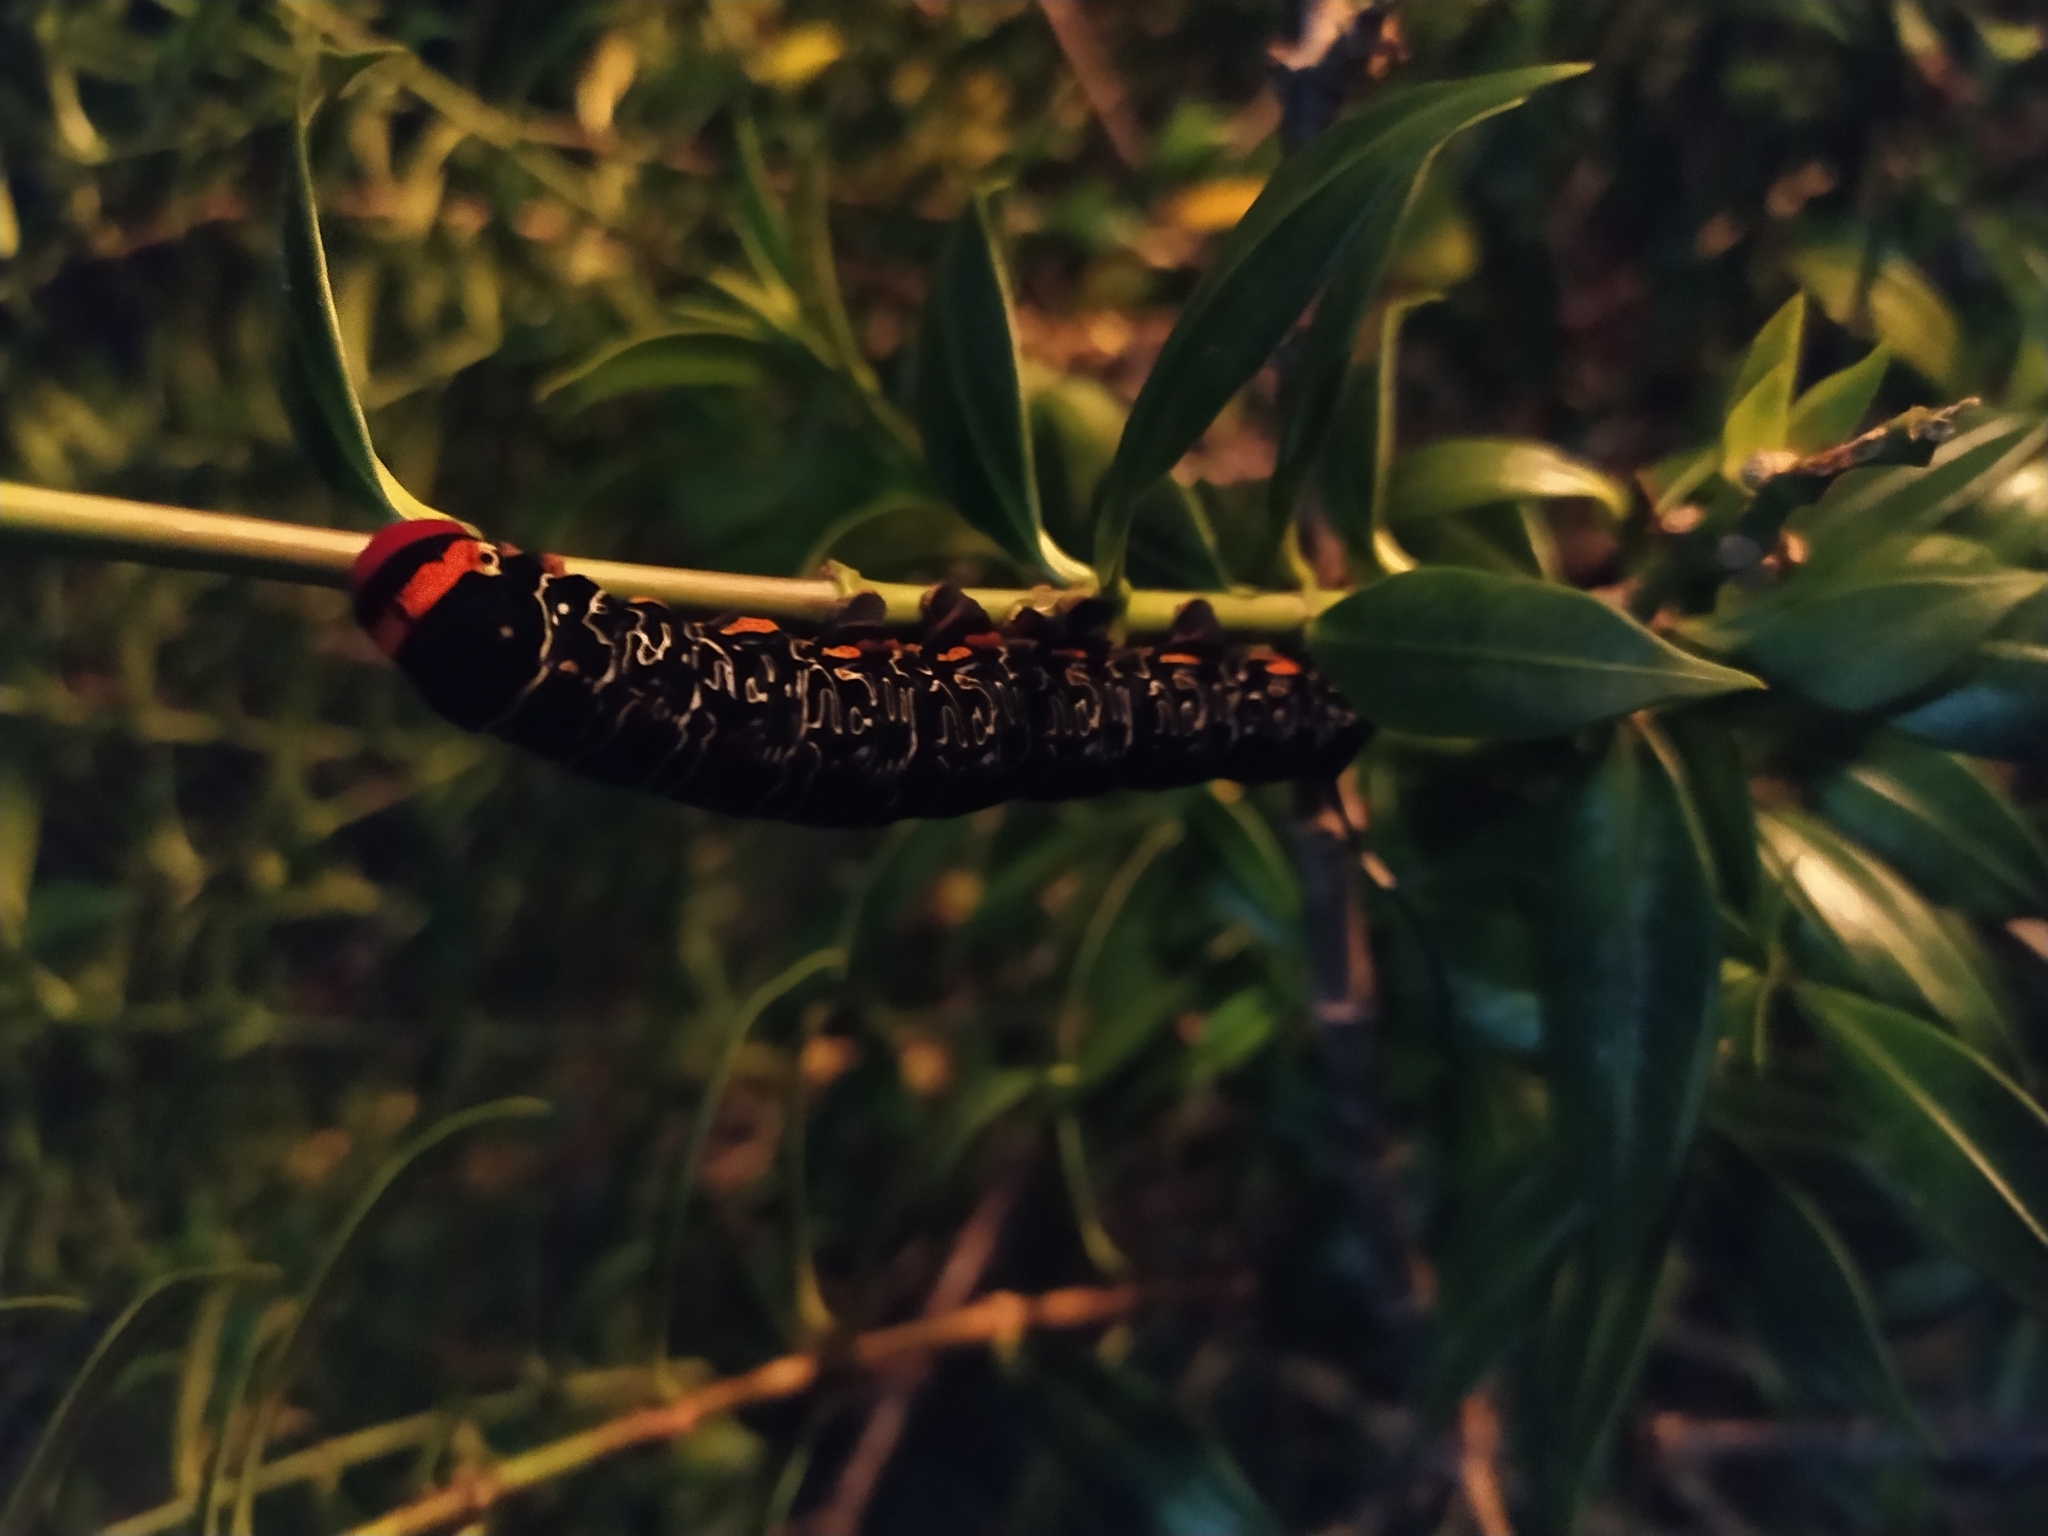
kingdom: Animalia
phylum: Arthropoda
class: Insecta
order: Lepidoptera
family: Sphingidae
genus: Isognathus
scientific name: Isognathus caricae
